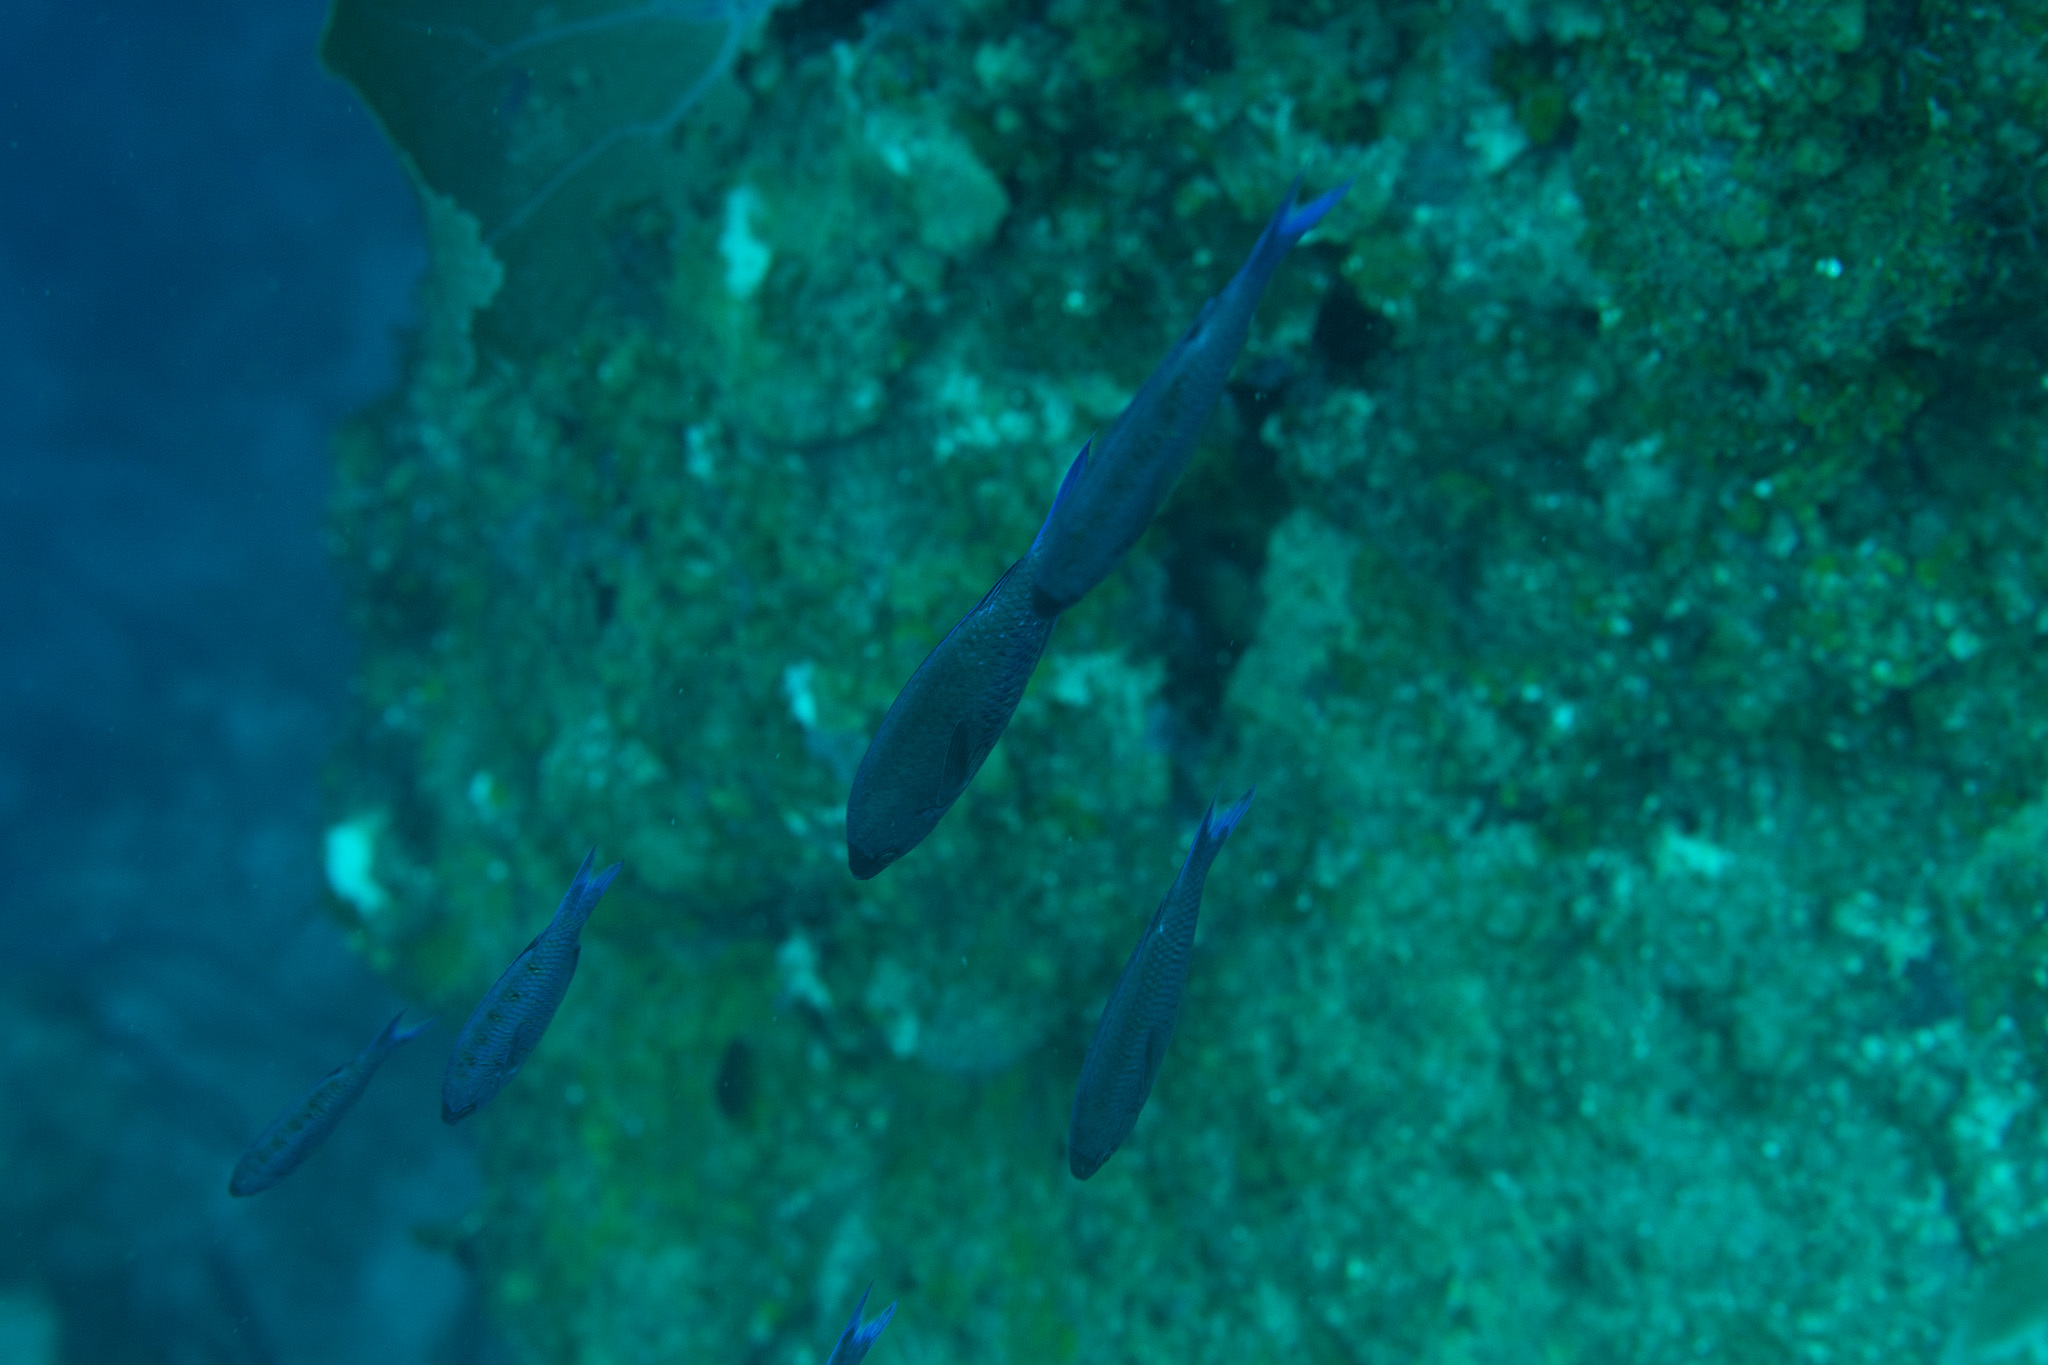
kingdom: Animalia
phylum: Chordata
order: Perciformes
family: Labridae
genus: Bodianus
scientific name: Bodianus
